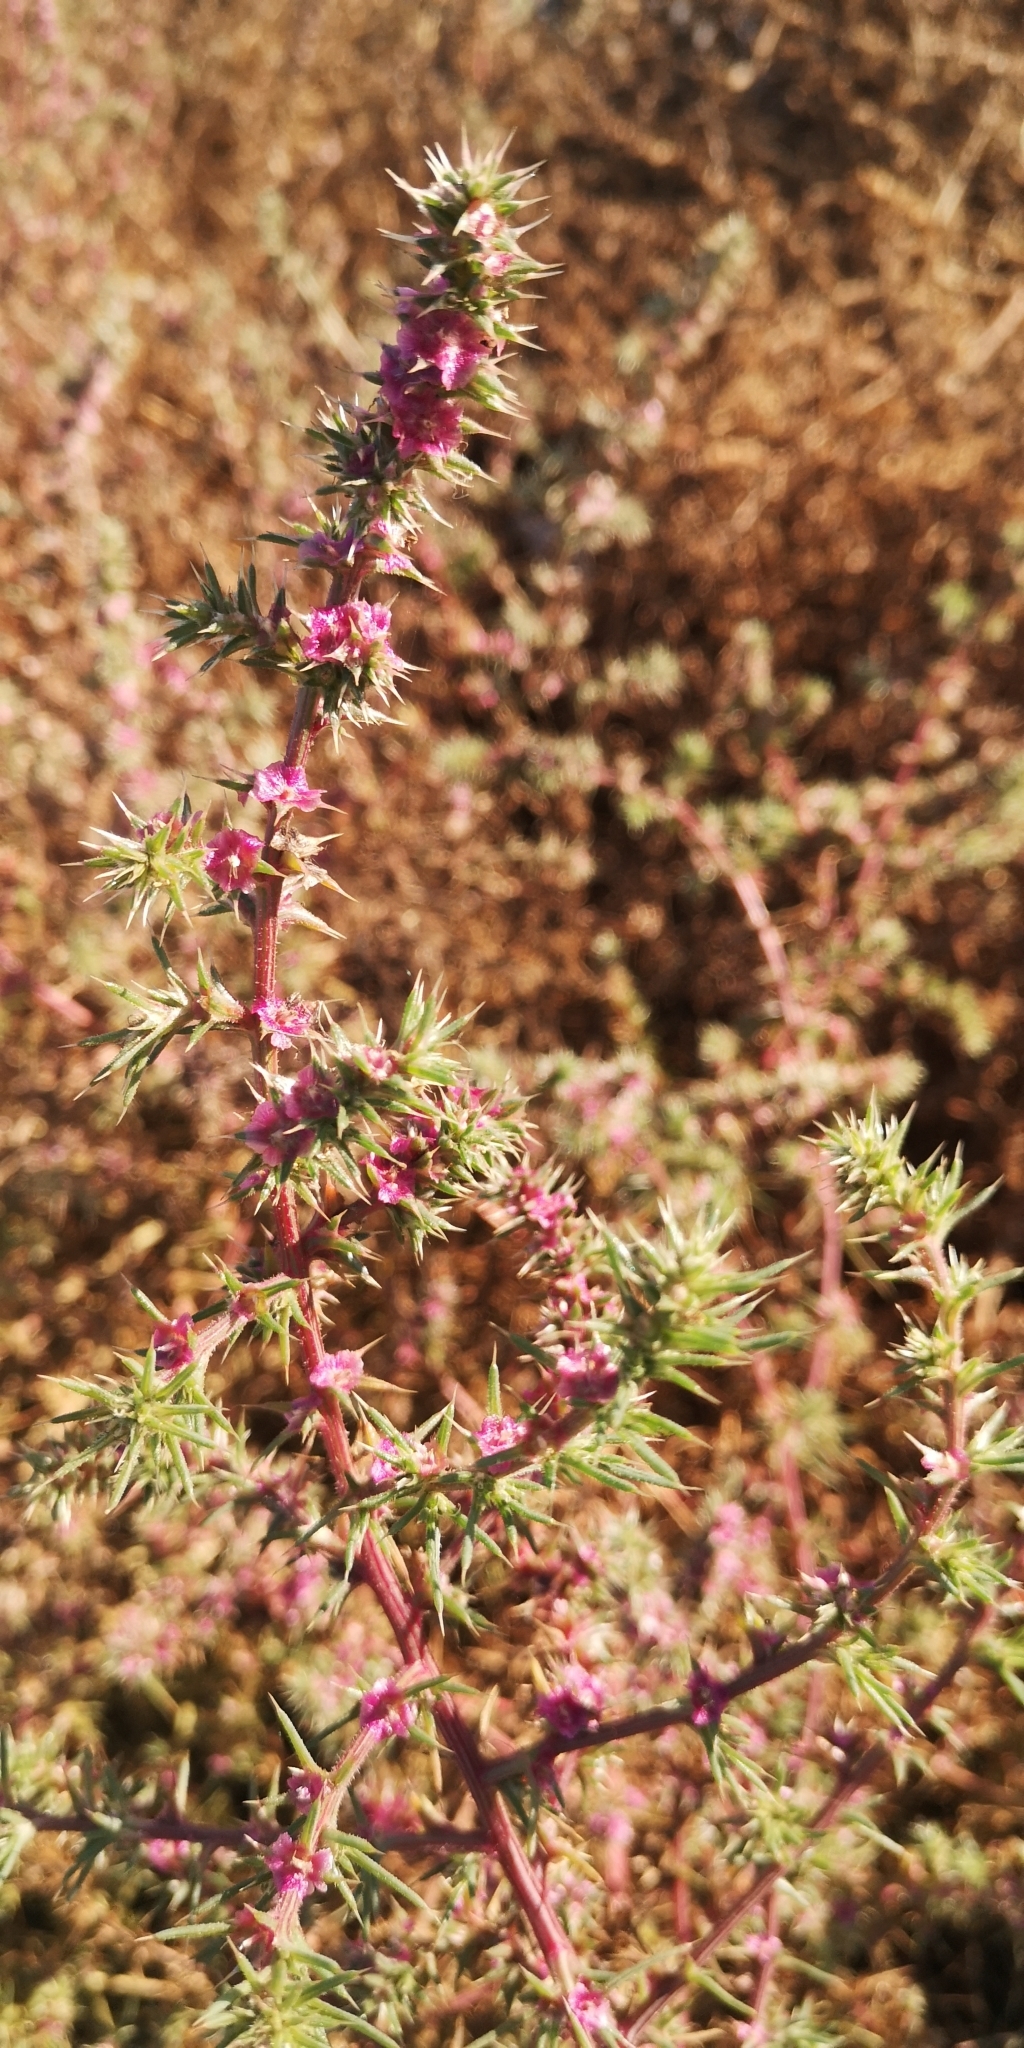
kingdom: Plantae
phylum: Tracheophyta
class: Magnoliopsida
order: Caryophyllales
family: Amaranthaceae
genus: Salsola
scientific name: Salsola kali
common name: Saltwort
